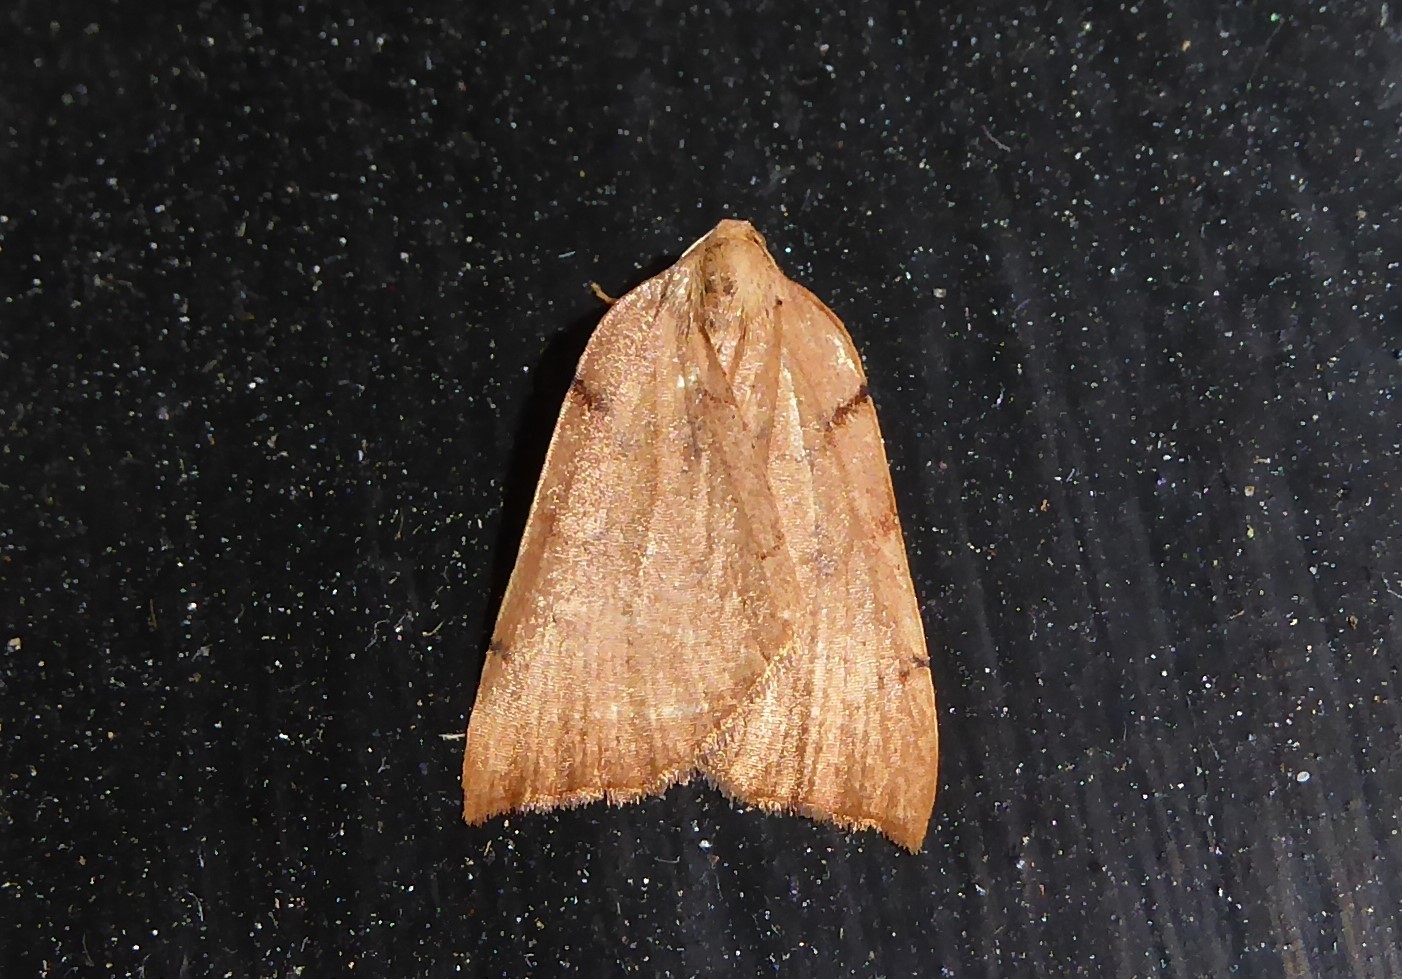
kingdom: Animalia
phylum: Arthropoda
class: Insecta
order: Lepidoptera
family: Geometridae
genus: Sestra
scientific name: Sestra humeraria
